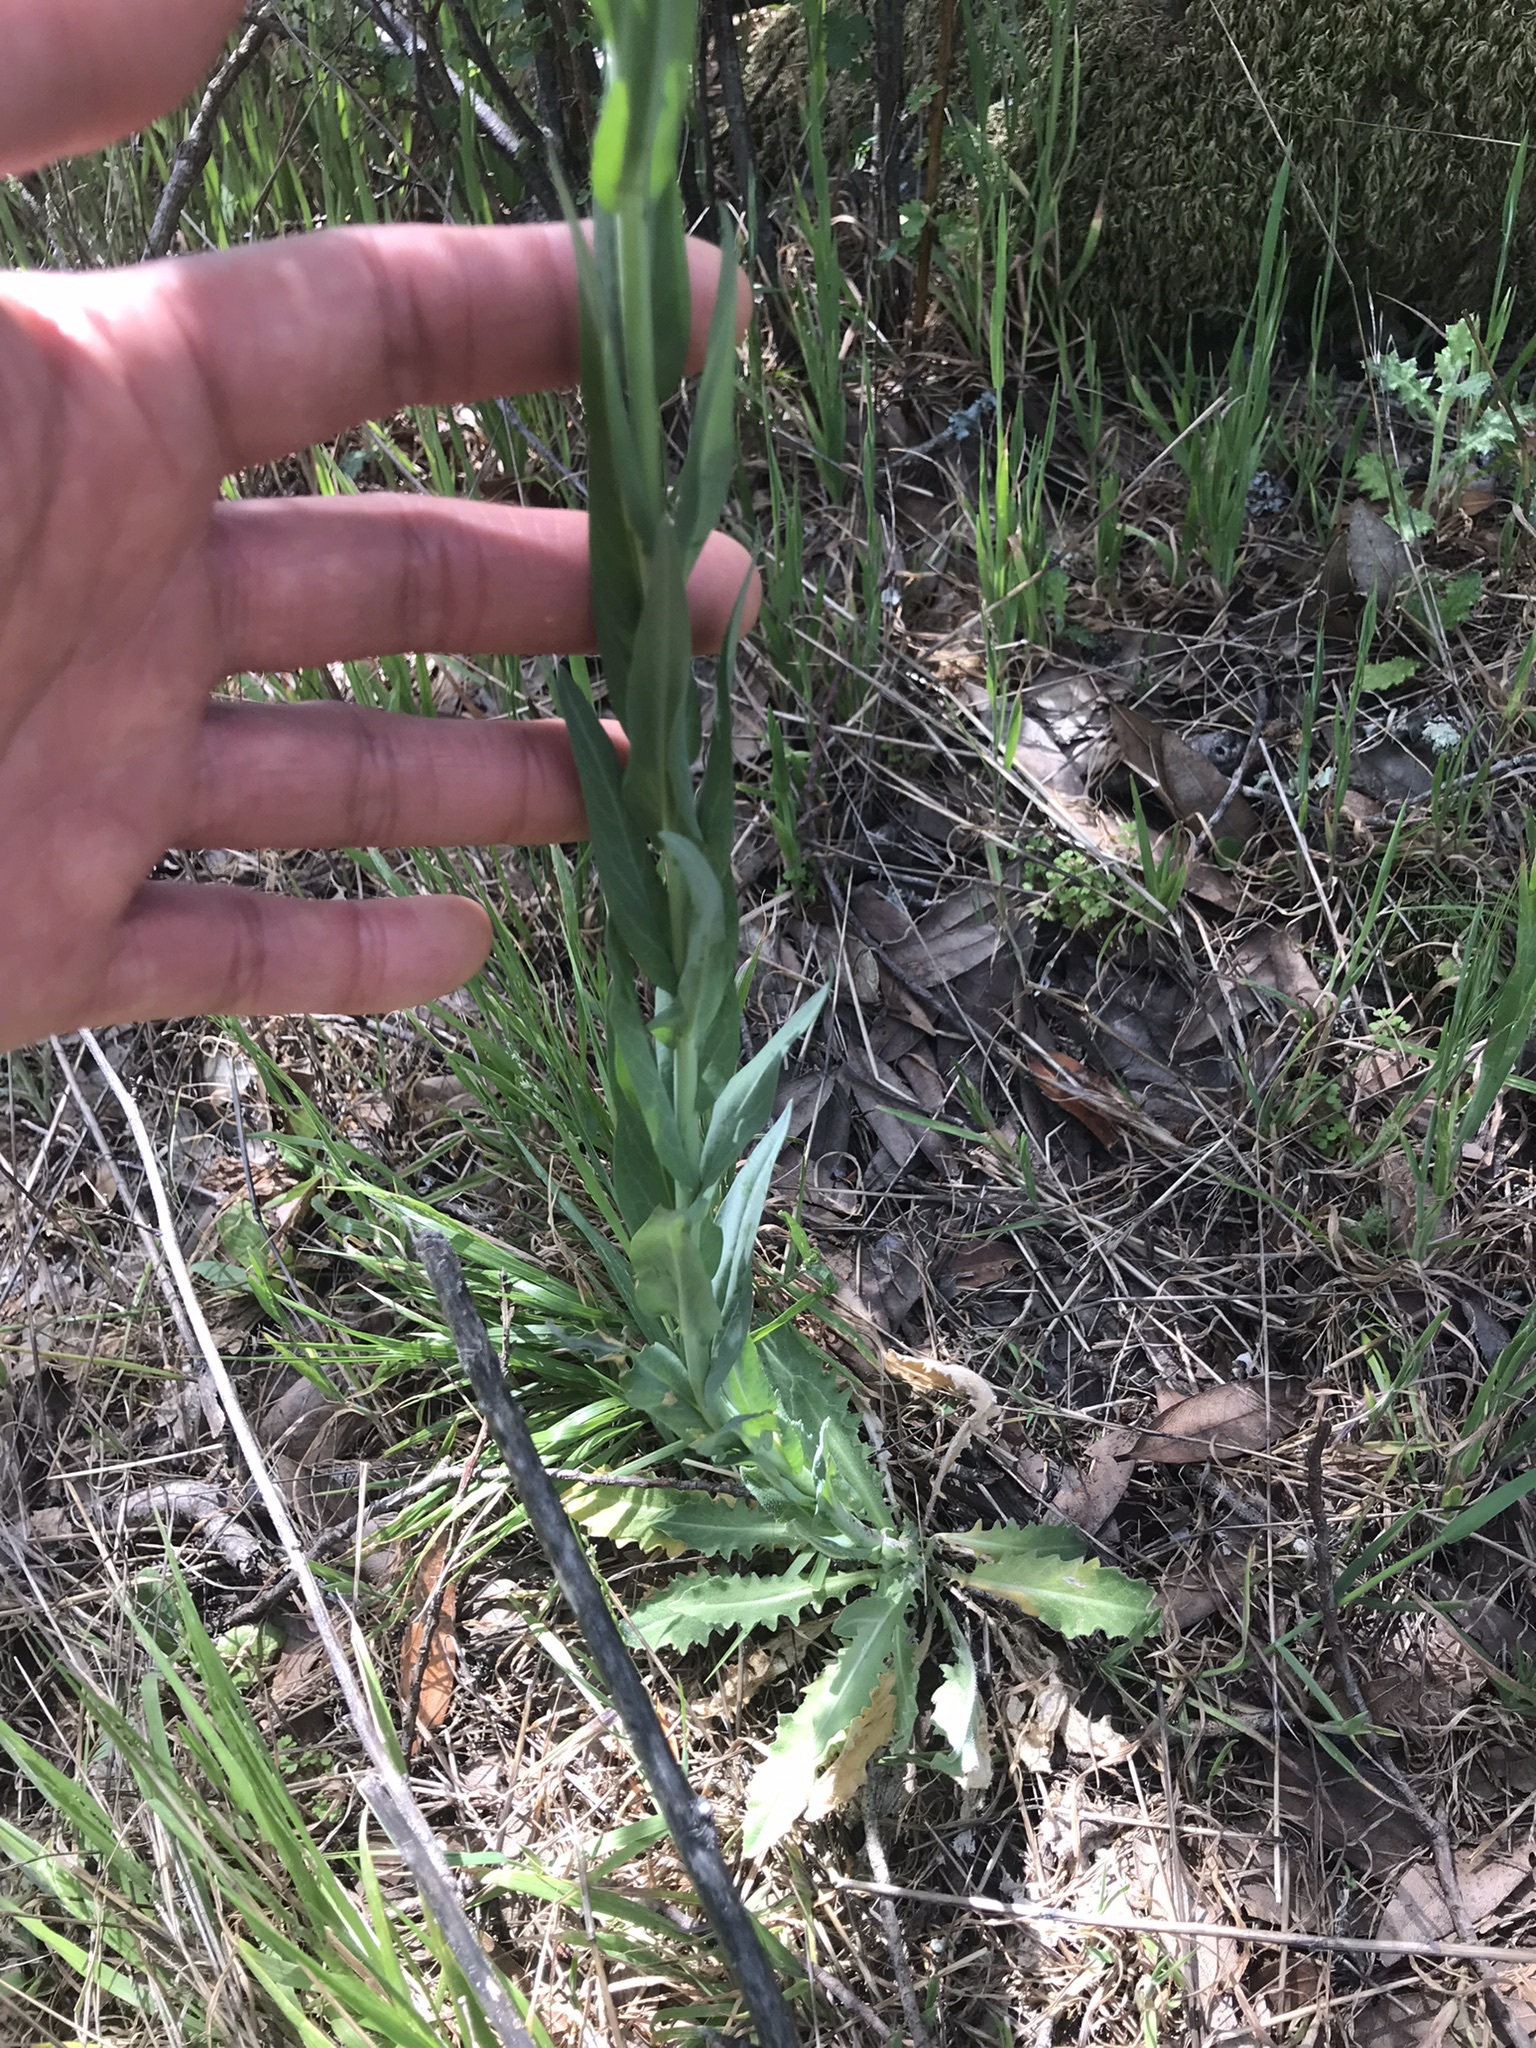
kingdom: Plantae
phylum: Tracheophyta
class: Magnoliopsida
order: Brassicales
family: Brassicaceae
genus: Turritis
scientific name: Turritis glabra
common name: Tower rockcress
